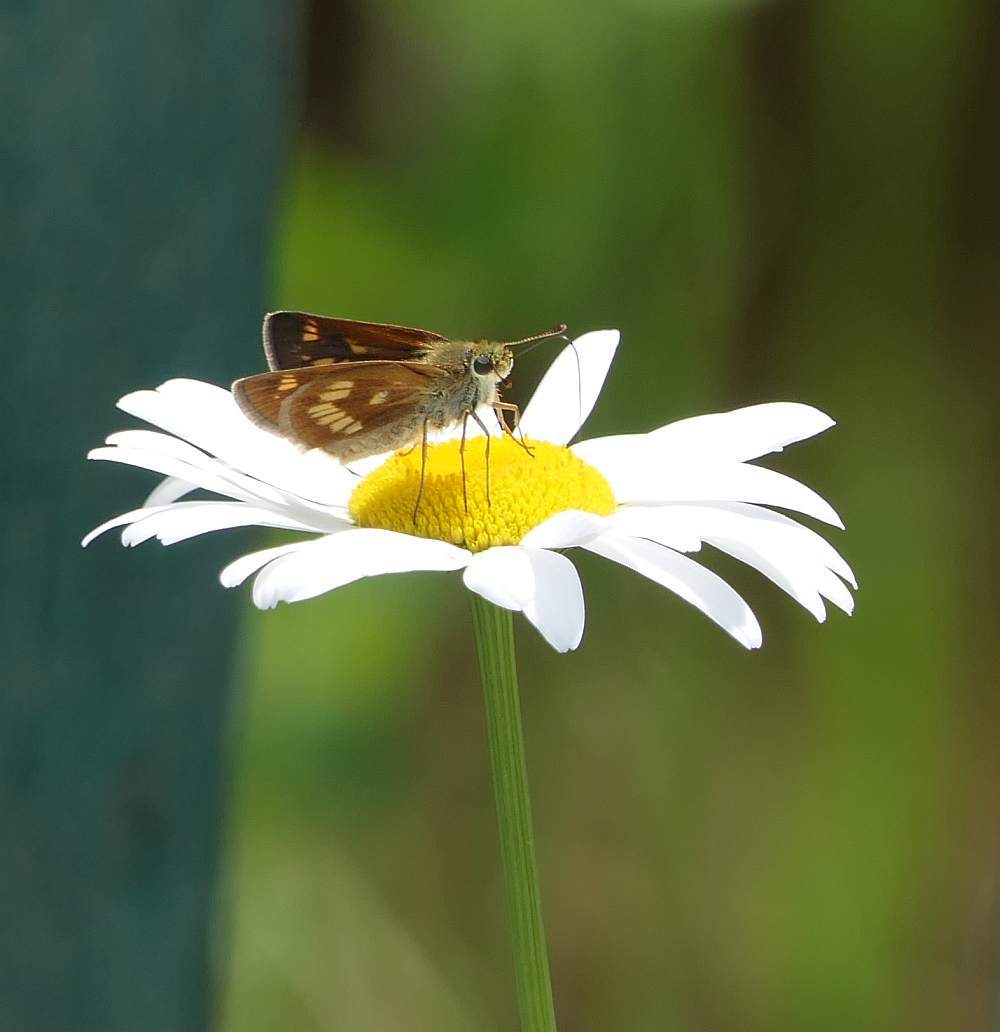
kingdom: Animalia
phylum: Arthropoda
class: Insecta
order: Lepidoptera
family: Hesperiidae
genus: Polites
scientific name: Polites mystic
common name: Long dash
